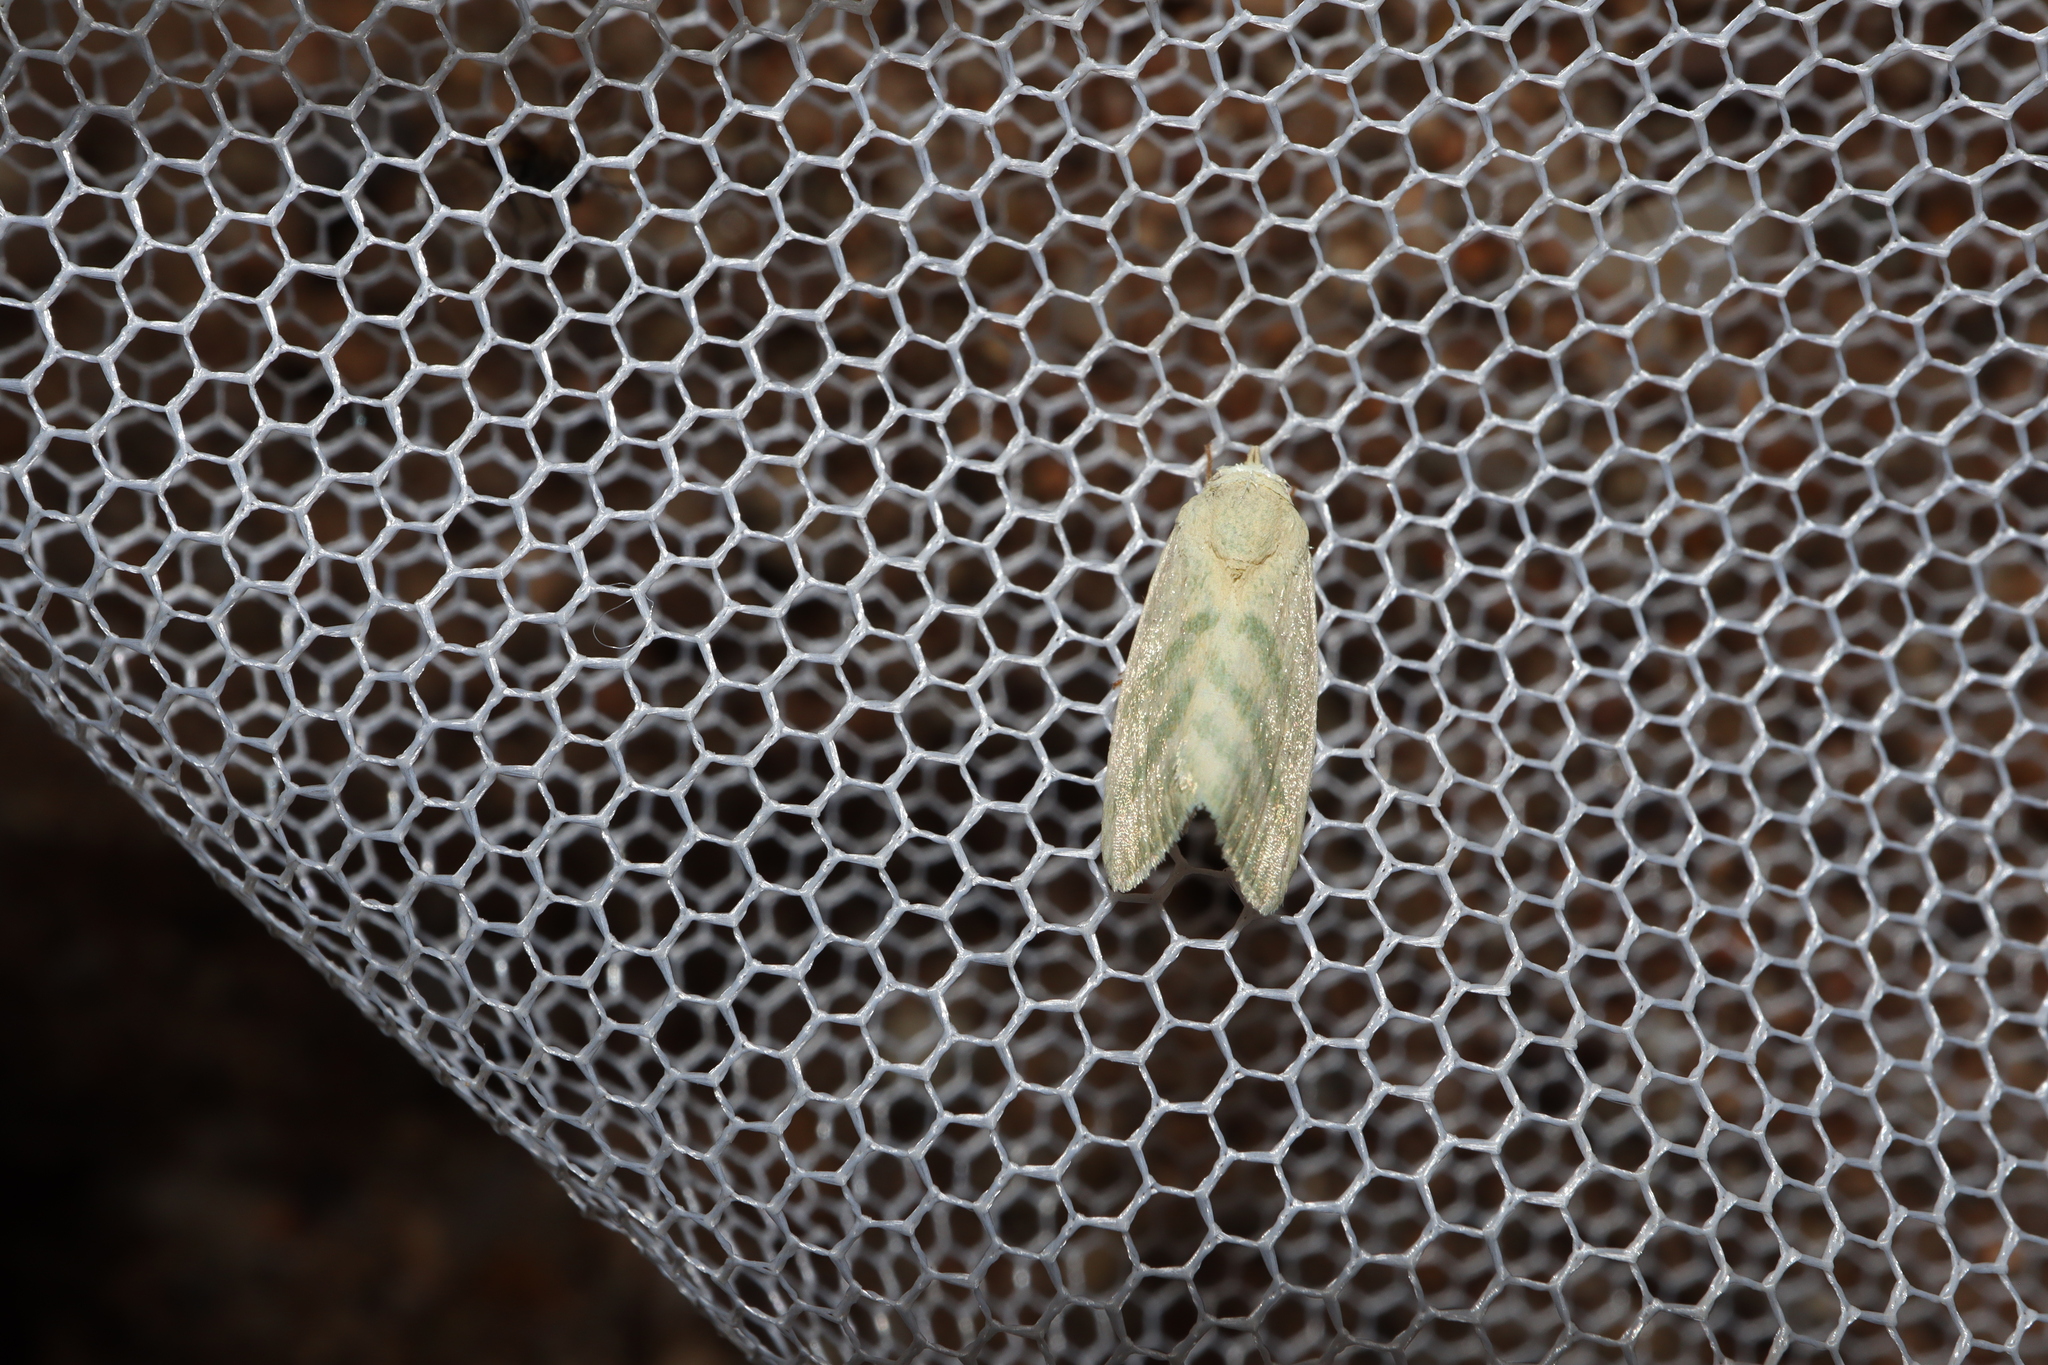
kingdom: Animalia
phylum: Arthropoda
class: Insecta
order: Lepidoptera
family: Nolidae
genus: Earias
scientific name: Earias paralella
